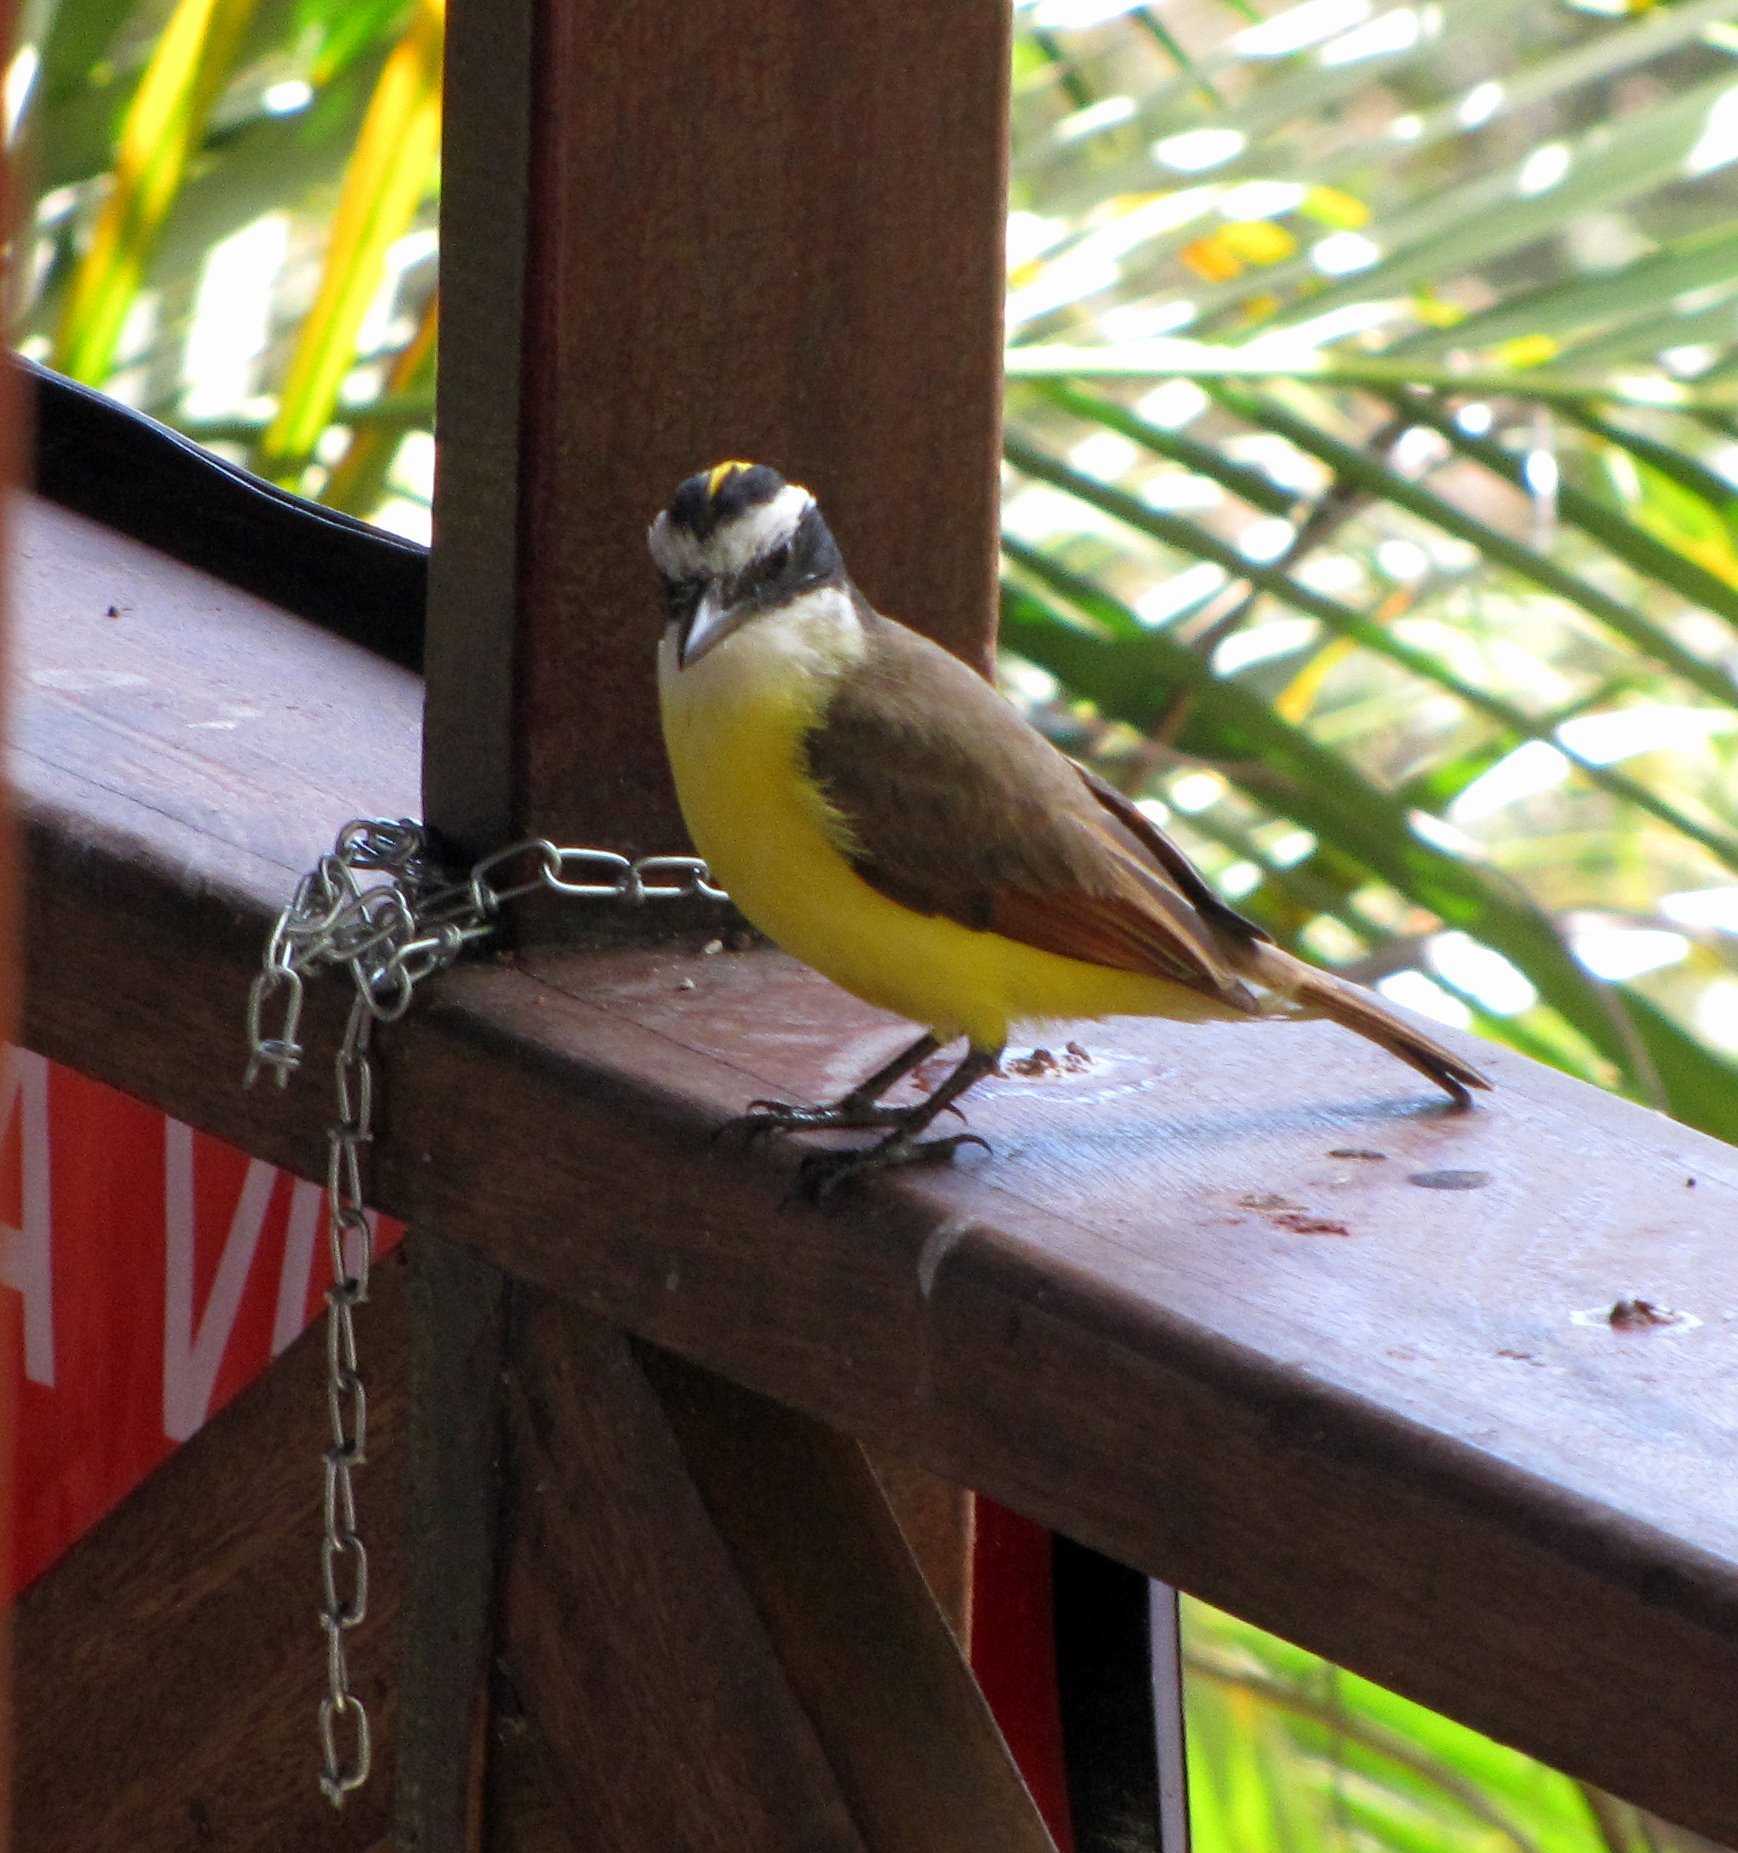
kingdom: Animalia
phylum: Chordata
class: Aves
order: Passeriformes
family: Tyrannidae
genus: Pitangus
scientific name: Pitangus sulphuratus
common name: Great kiskadee
